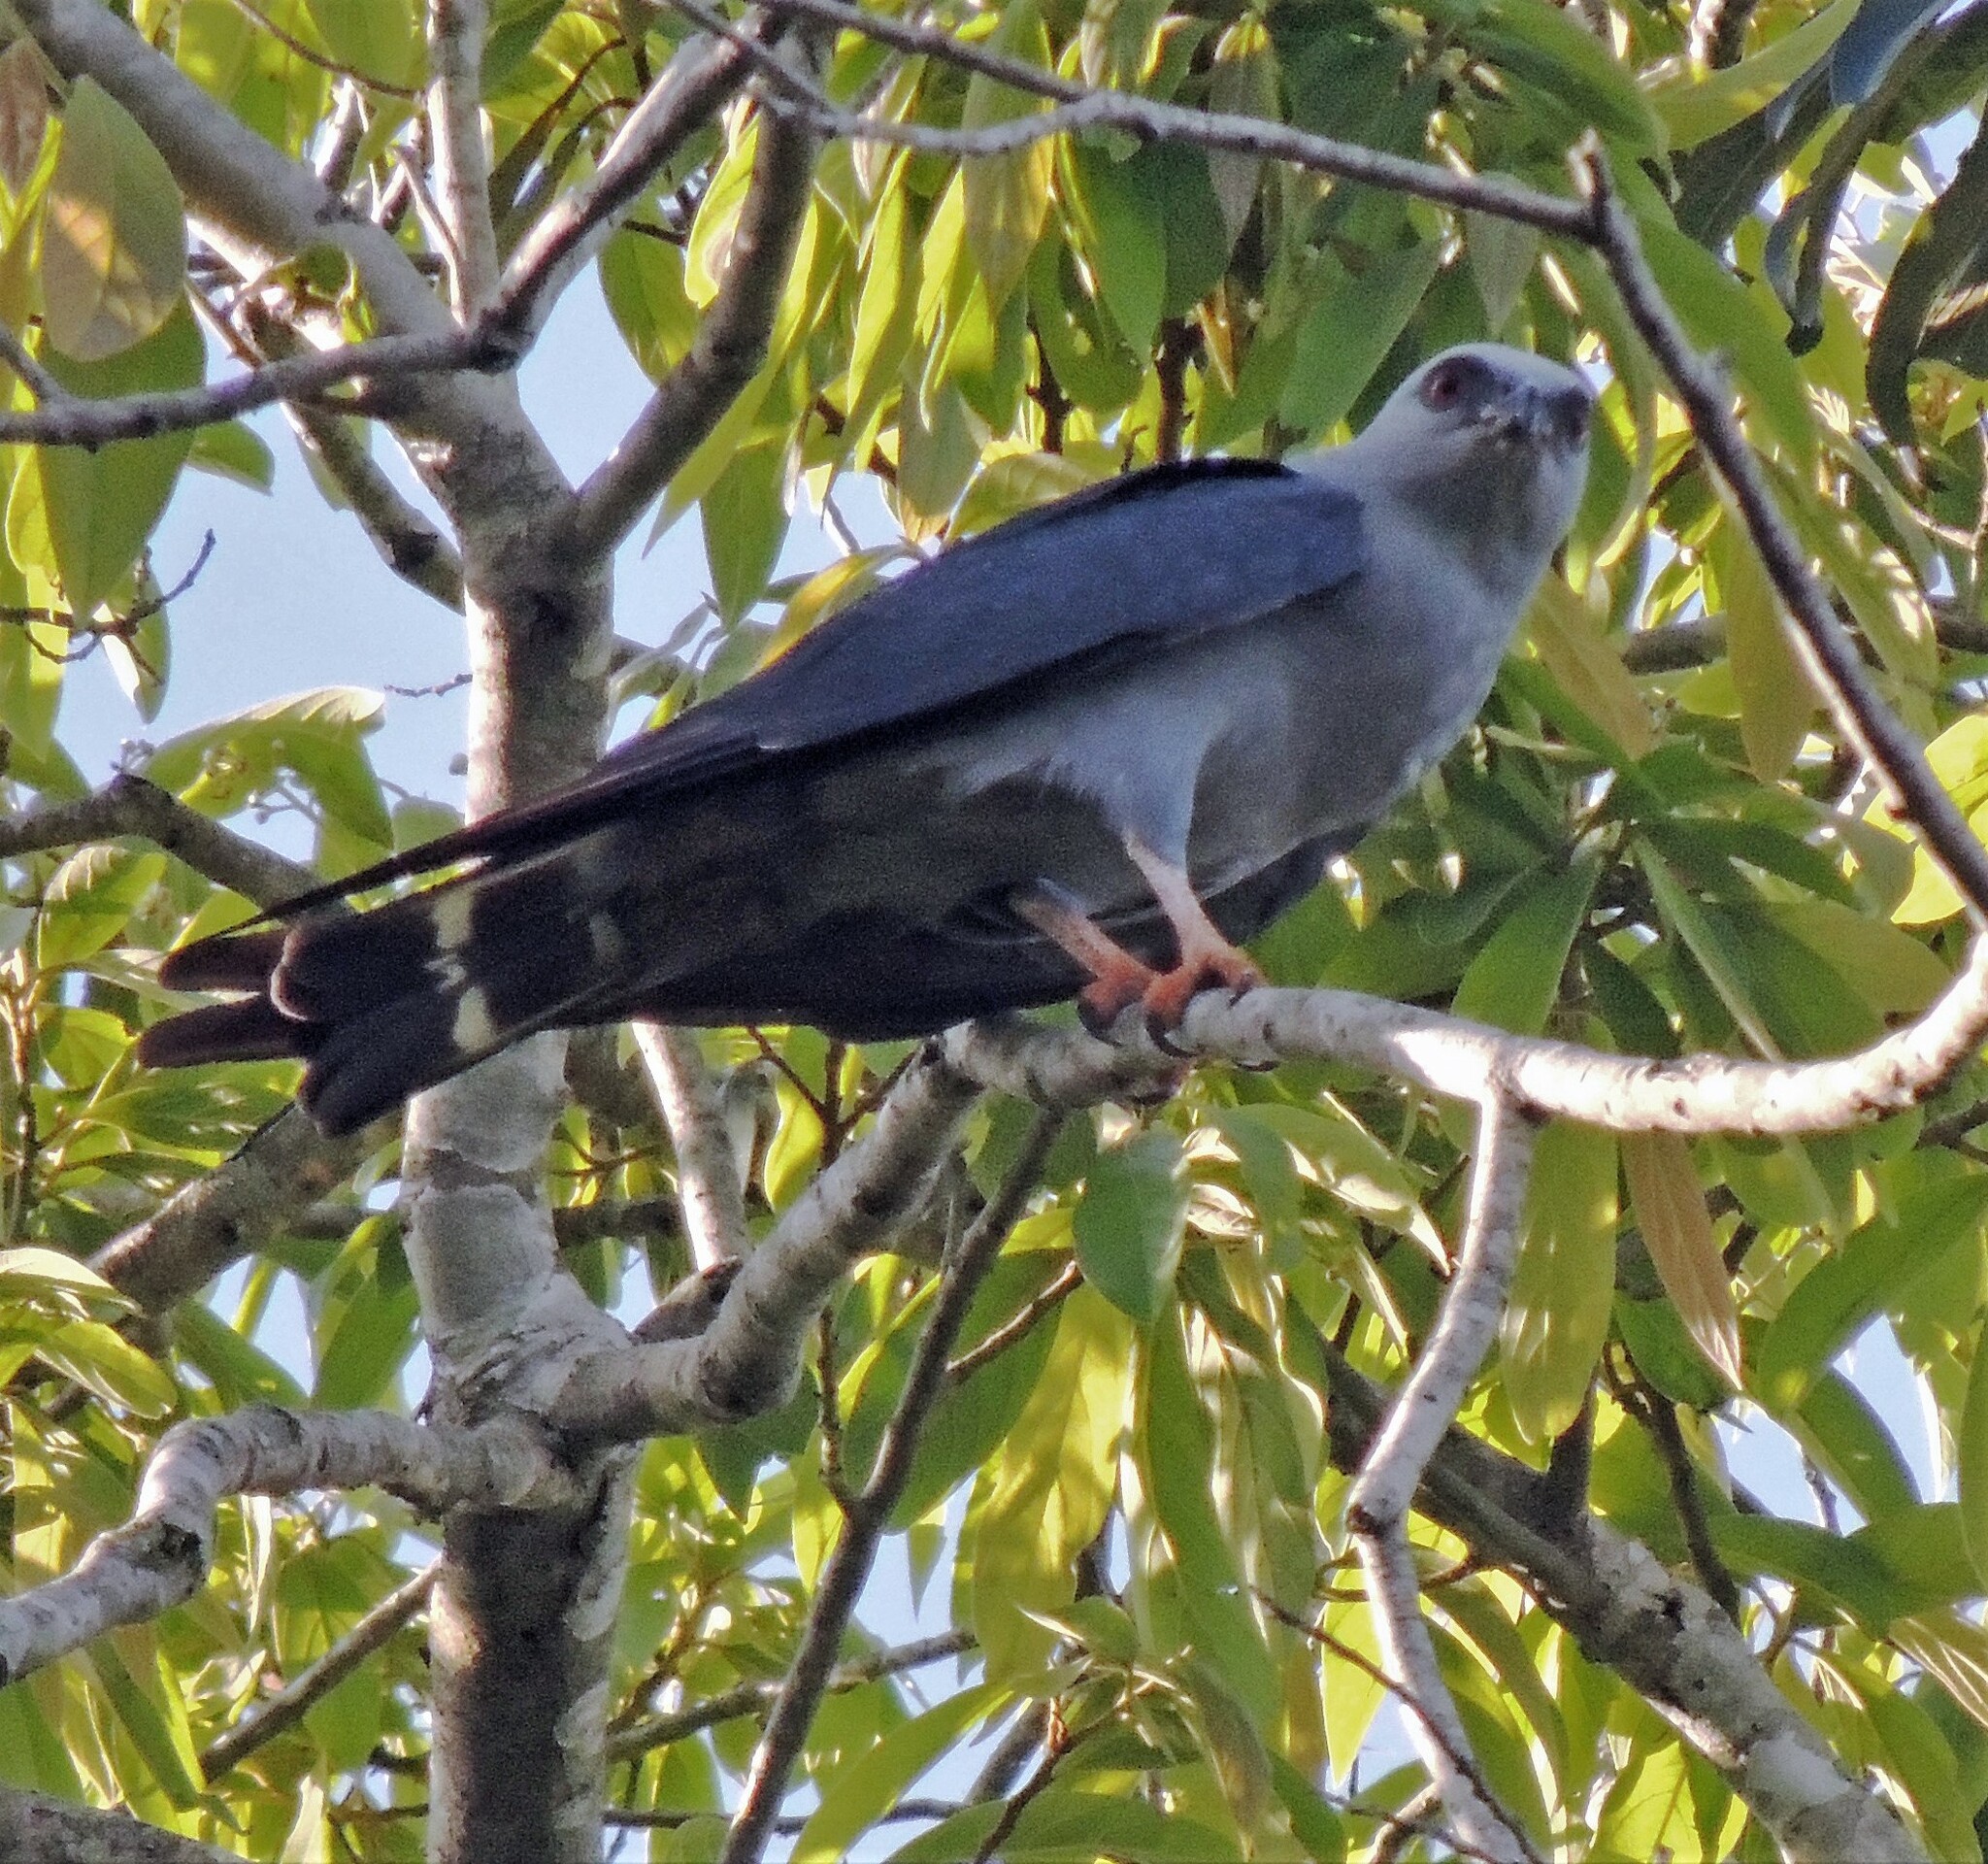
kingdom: Animalia
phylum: Chordata
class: Aves
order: Accipitriformes
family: Accipitridae
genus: Ictinia
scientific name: Ictinia plumbea
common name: Plumbeous kite
